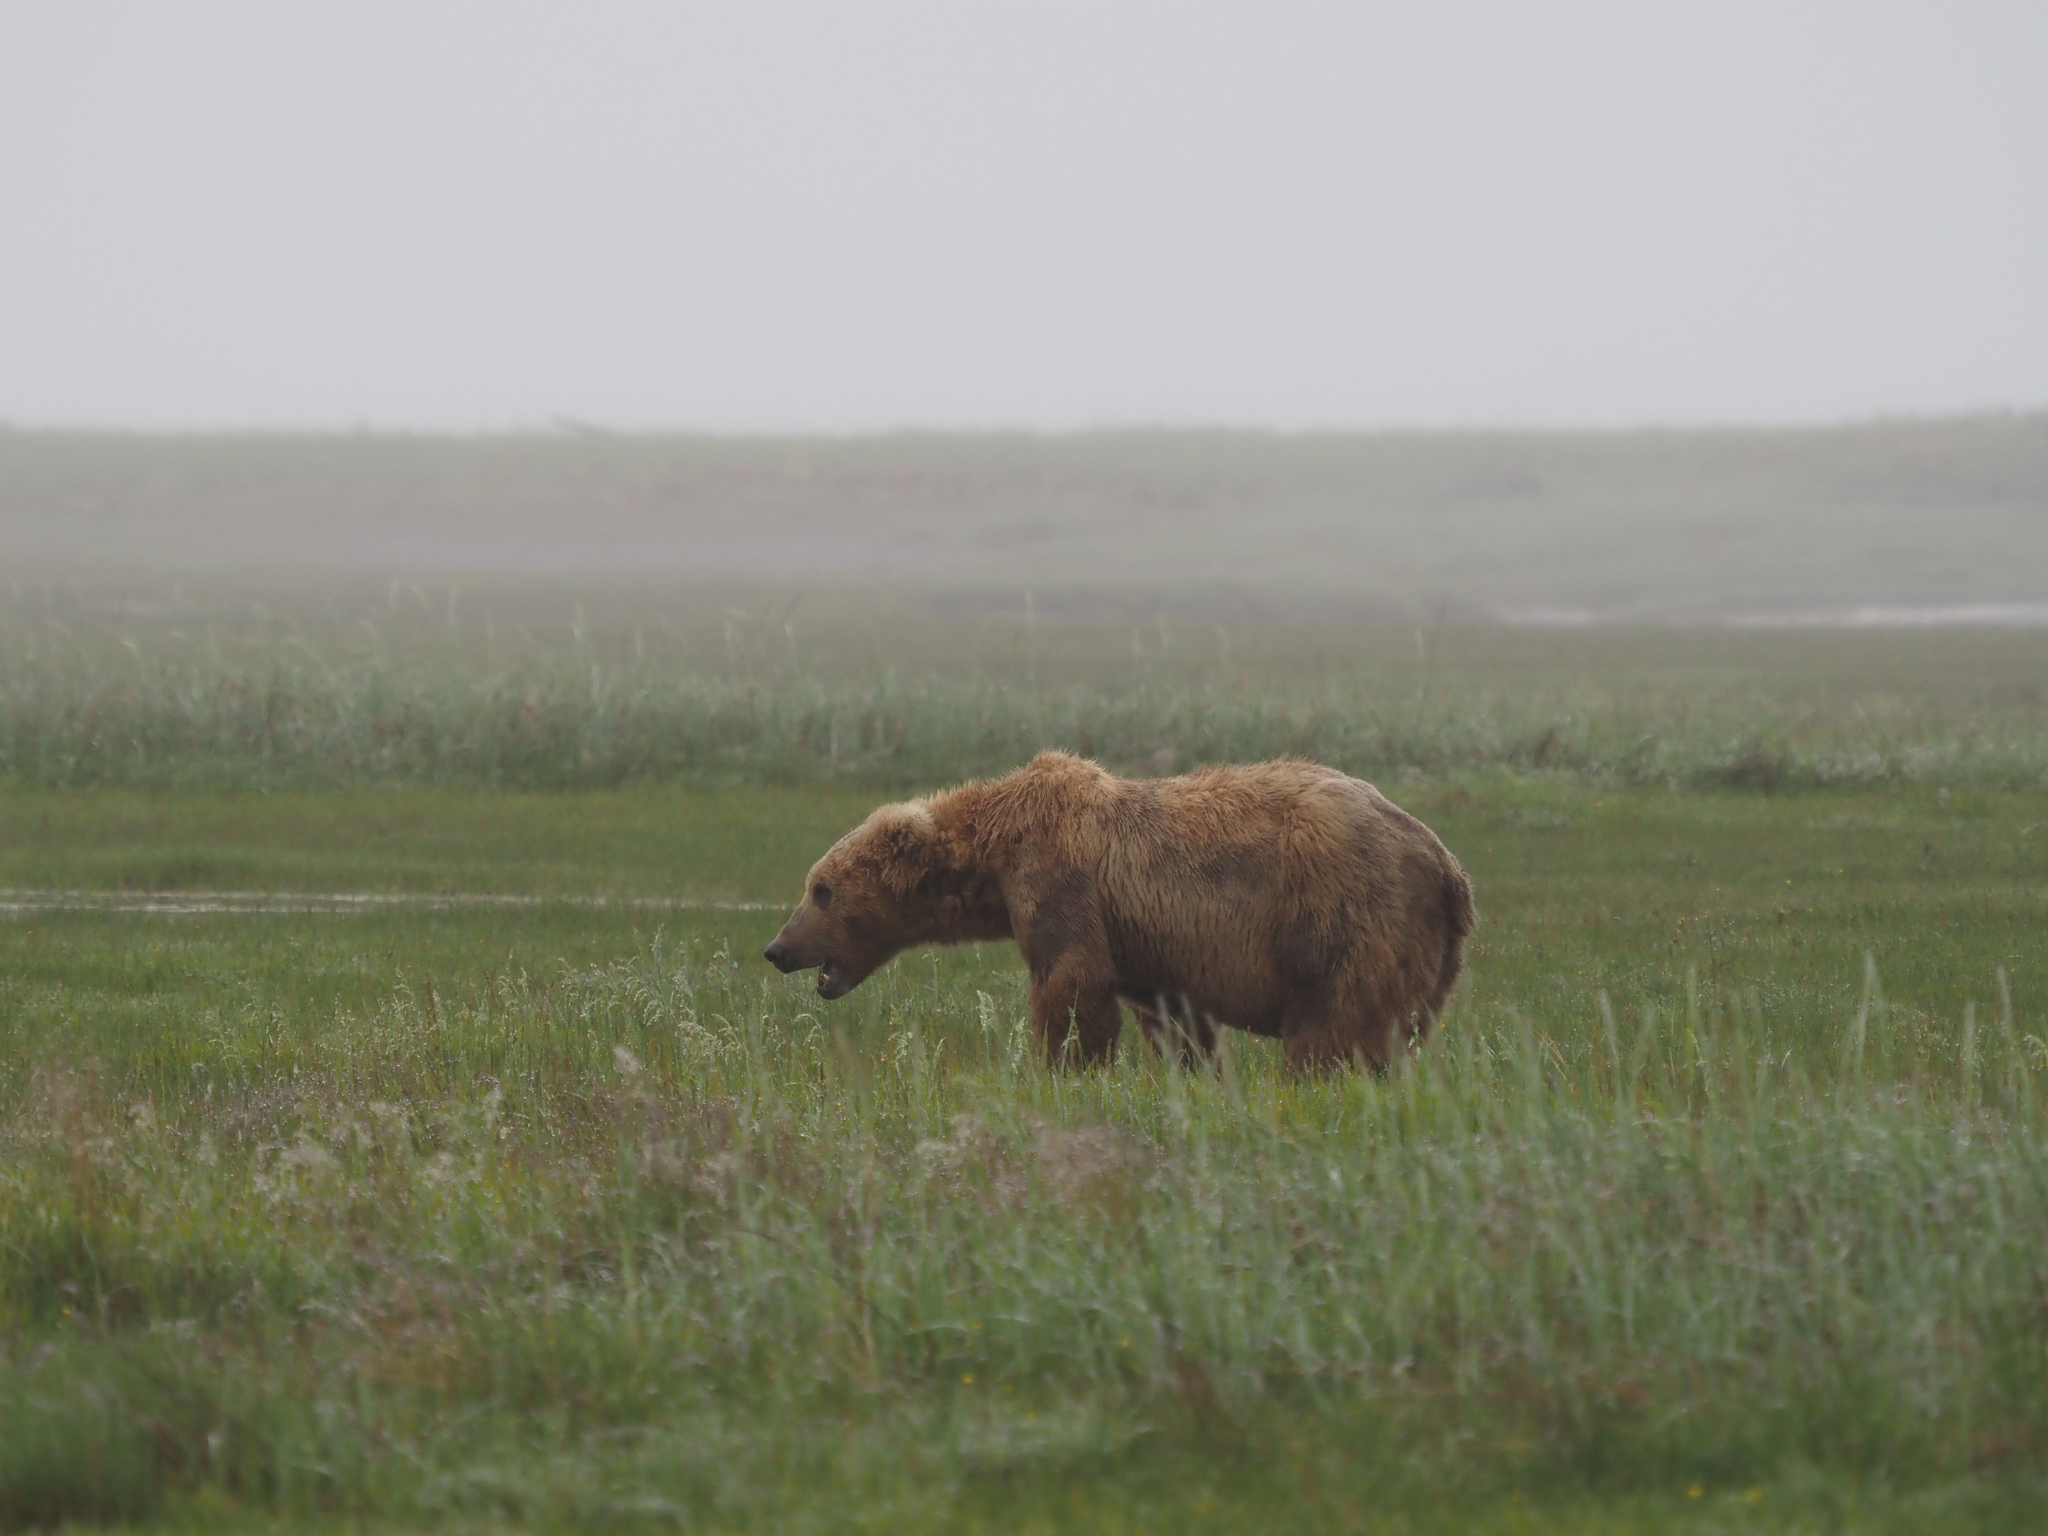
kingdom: Animalia
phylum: Chordata
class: Mammalia
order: Carnivora
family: Ursidae
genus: Ursus
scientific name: Ursus arctos
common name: Brown bear
